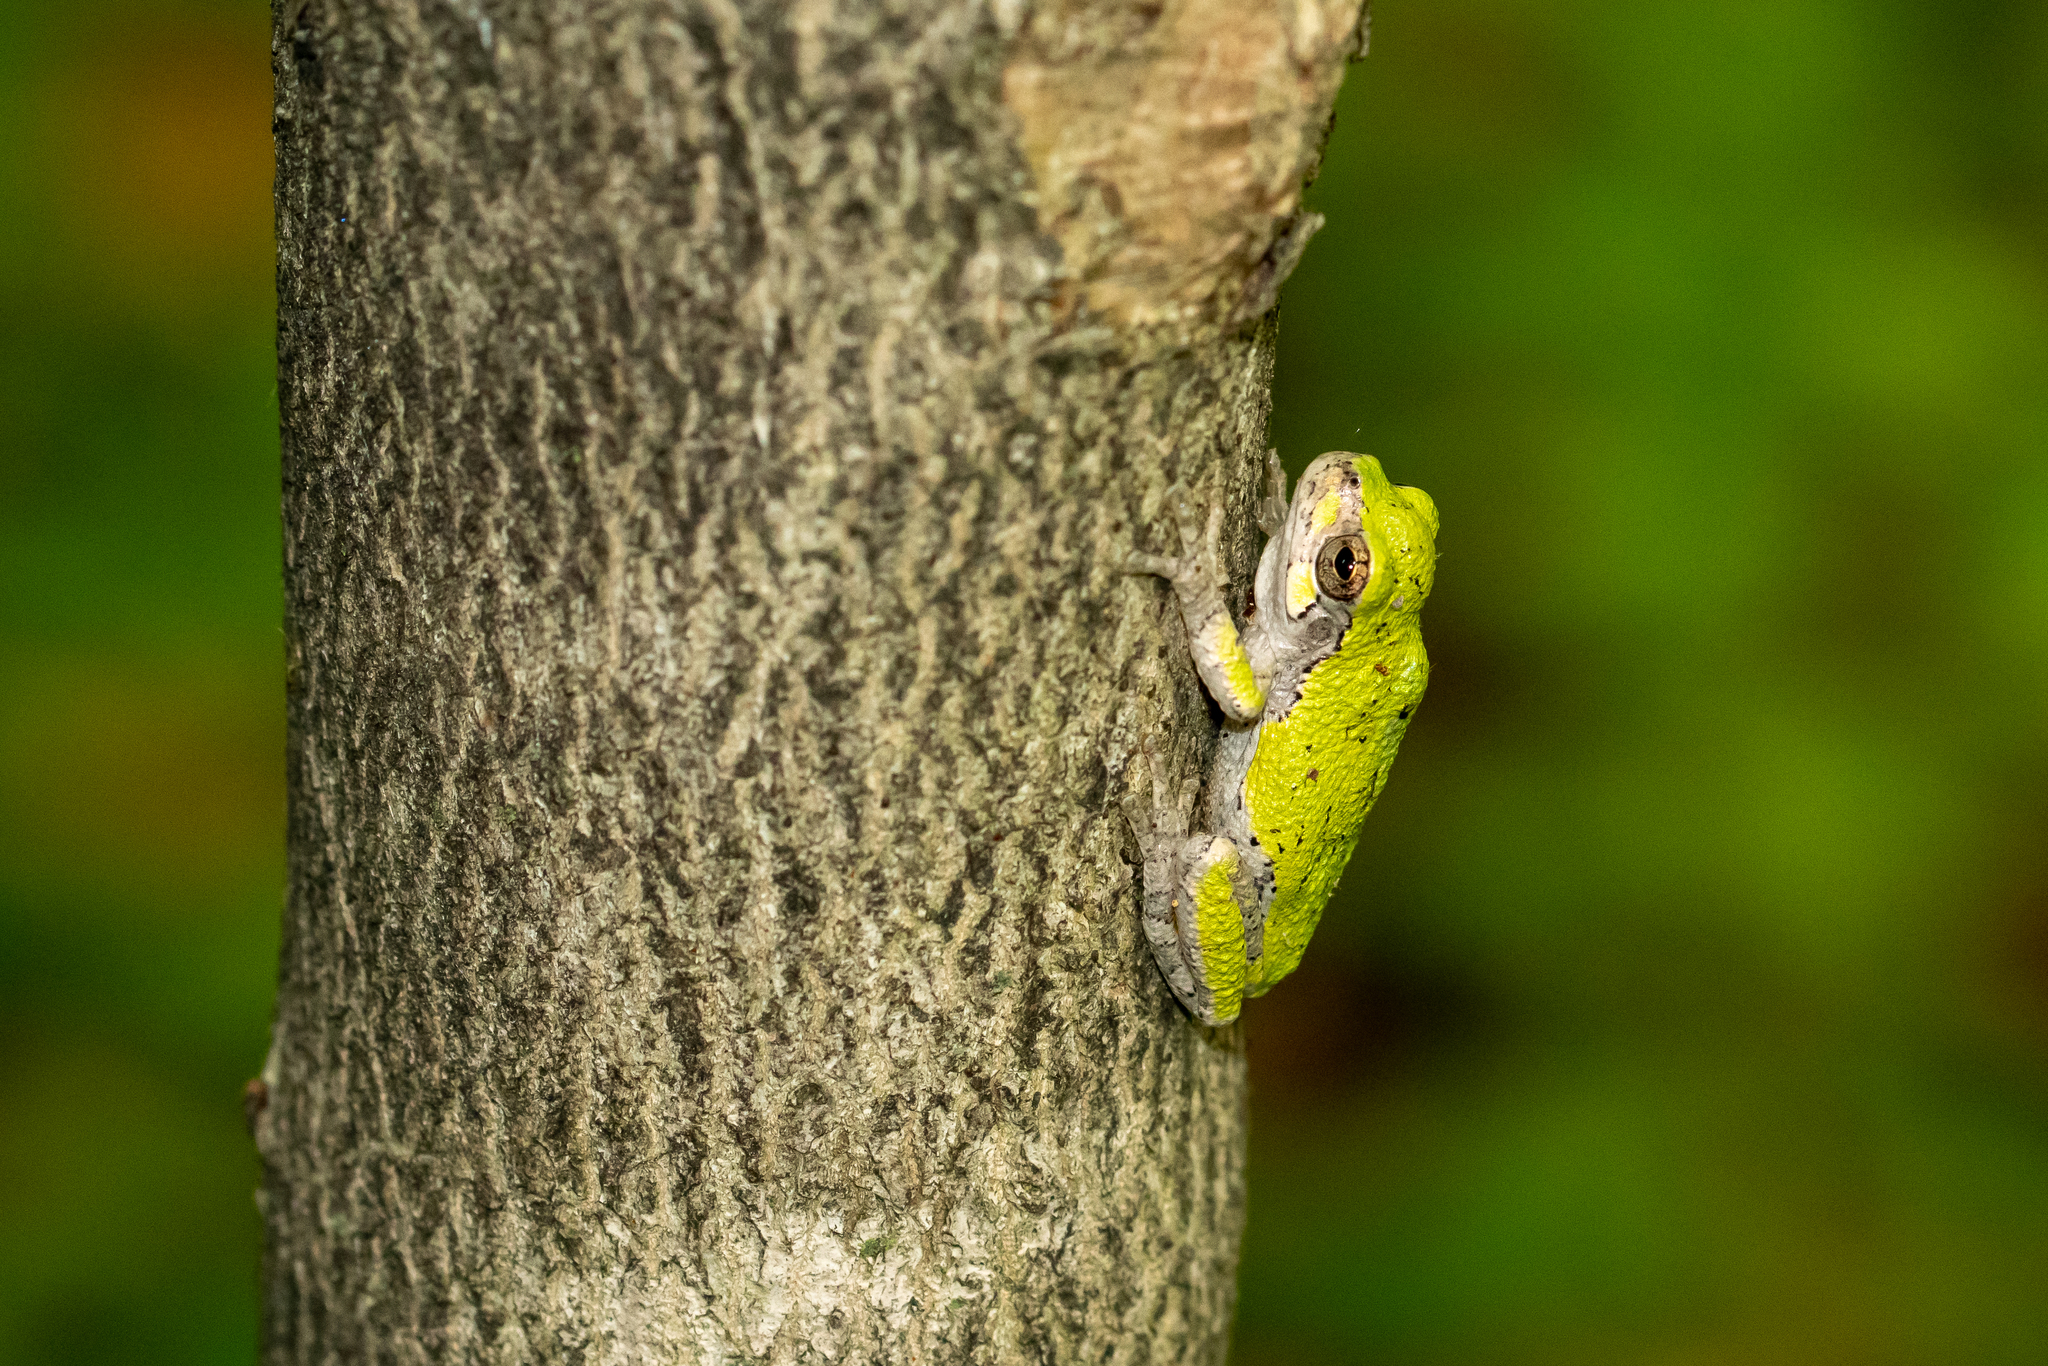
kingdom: Animalia
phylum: Chordata
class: Amphibia
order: Anura
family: Hylidae
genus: Hyla
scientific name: Hyla
